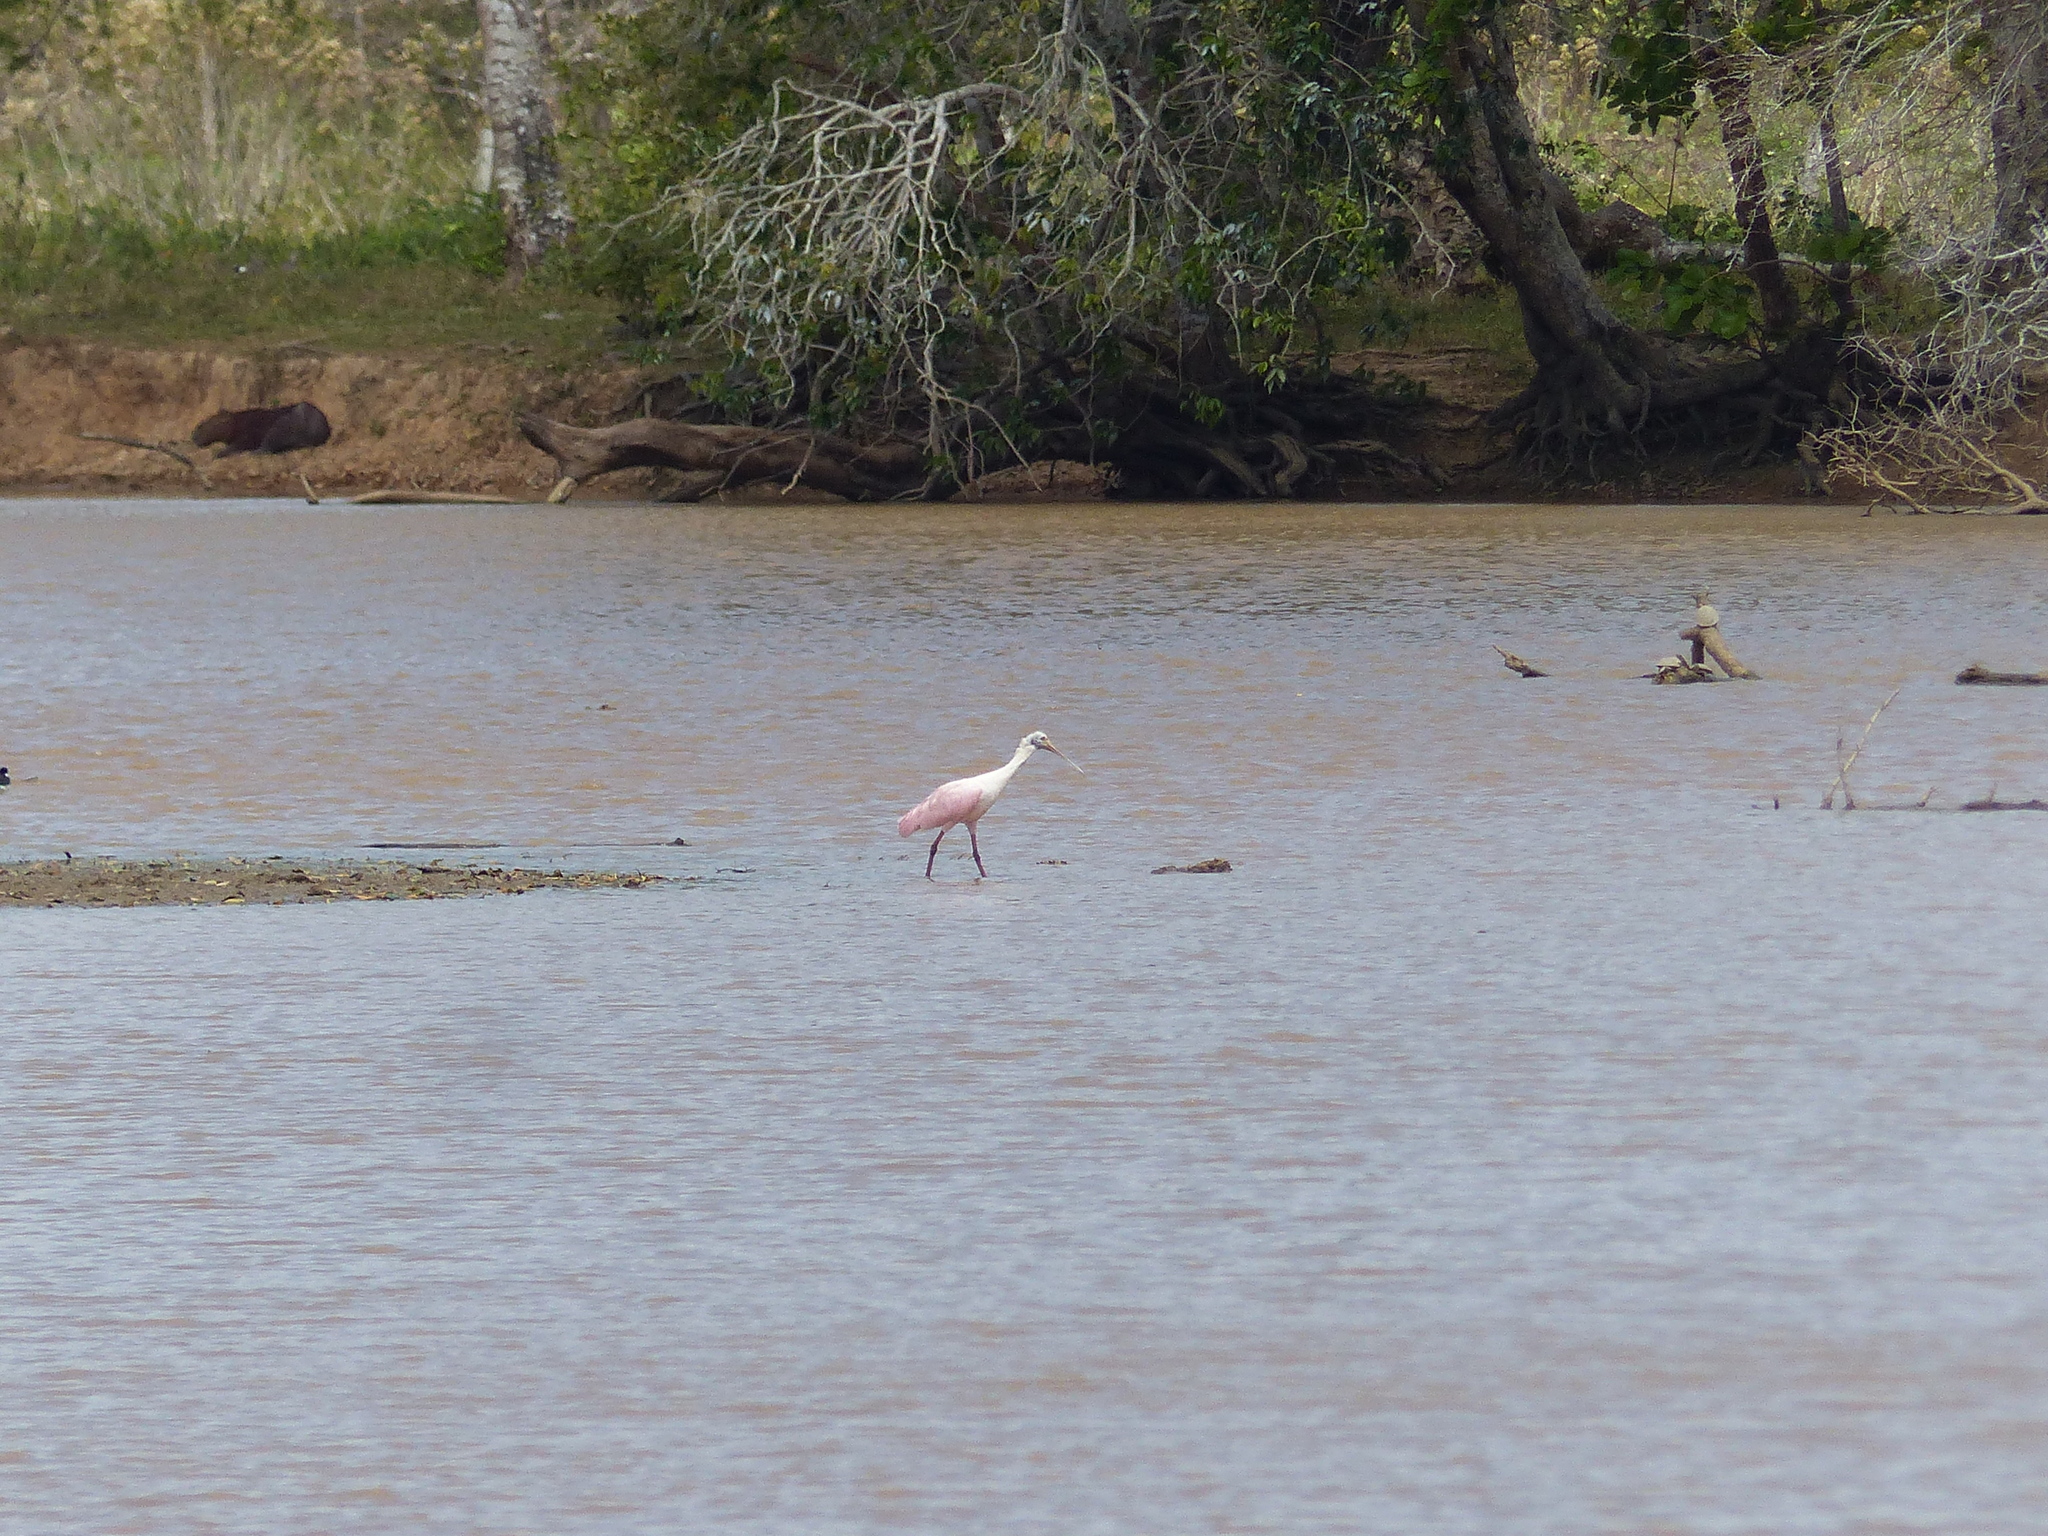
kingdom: Animalia
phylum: Chordata
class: Aves
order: Pelecaniformes
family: Threskiornithidae
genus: Platalea
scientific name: Platalea ajaja
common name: Roseate spoonbill
